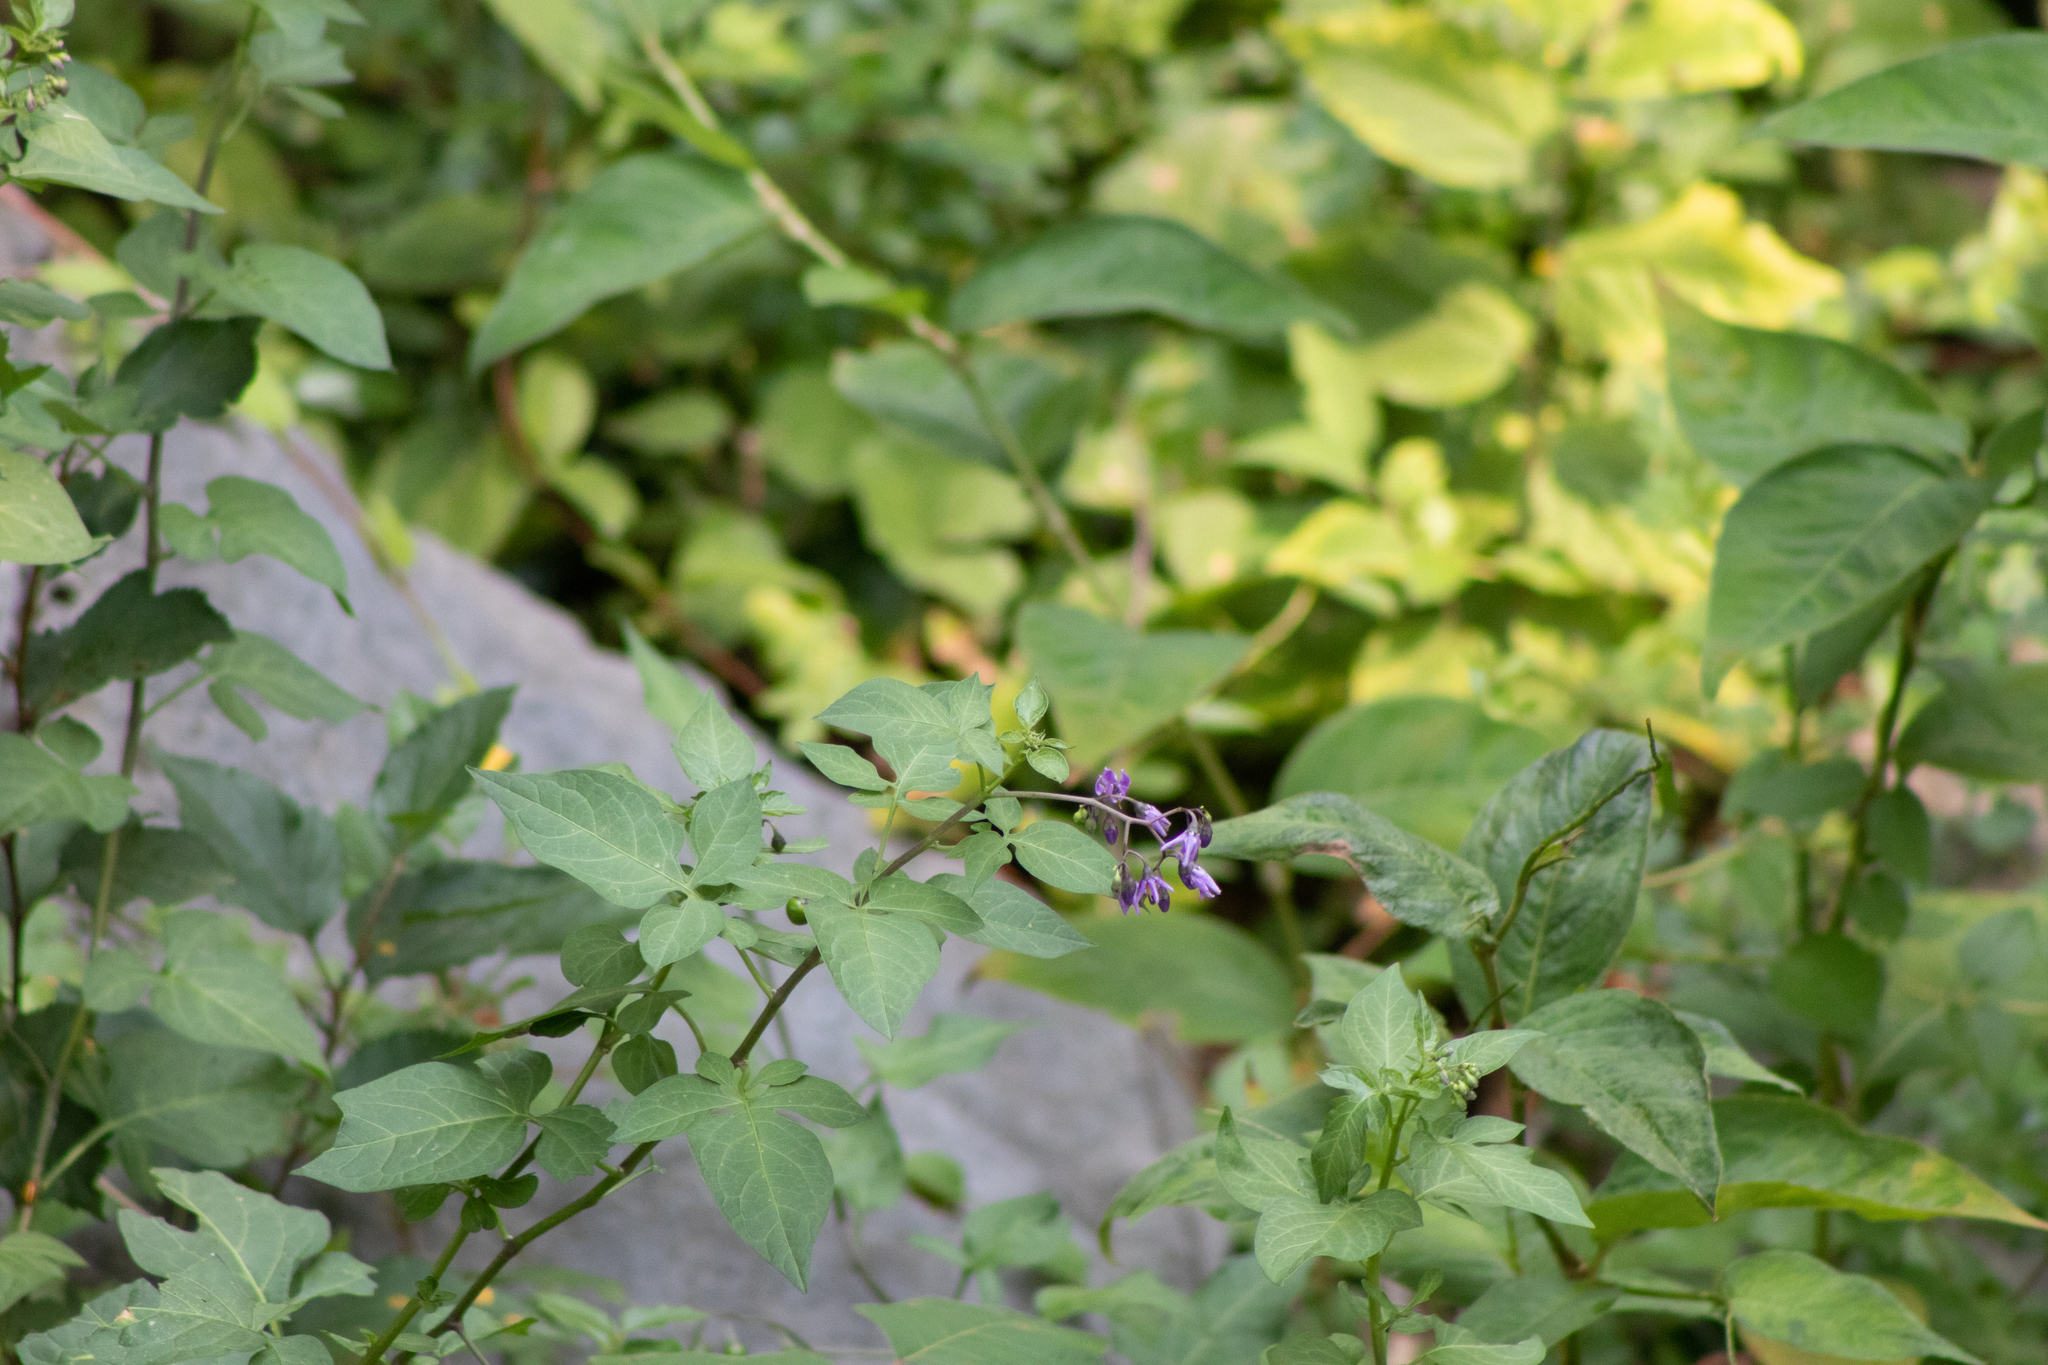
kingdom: Plantae
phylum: Tracheophyta
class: Magnoliopsida
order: Solanales
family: Solanaceae
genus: Solanum
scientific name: Solanum dulcamara
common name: Climbing nightshade
